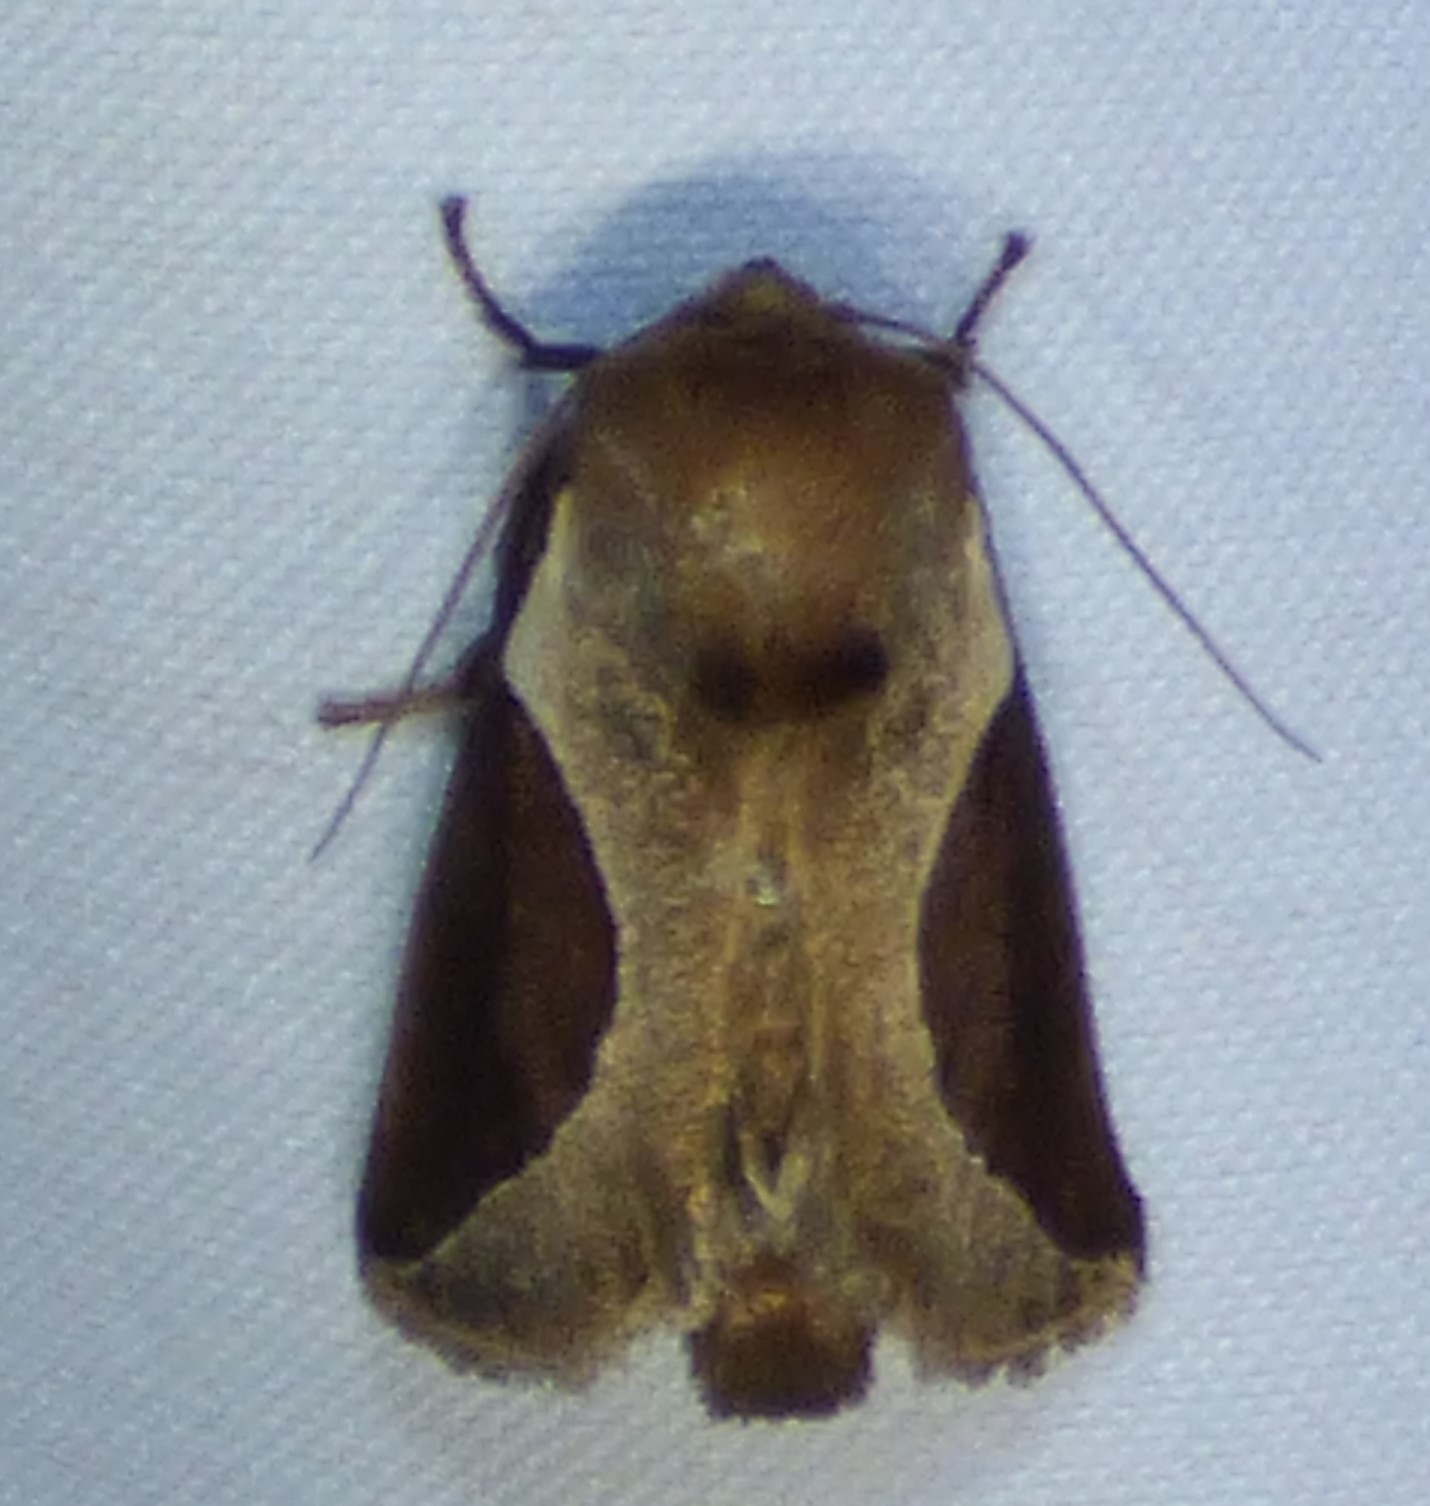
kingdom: Animalia
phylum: Arthropoda
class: Insecta
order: Lepidoptera
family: Limacodidae
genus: Prolimacodes
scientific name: Prolimacodes badia
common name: Skiff moth
